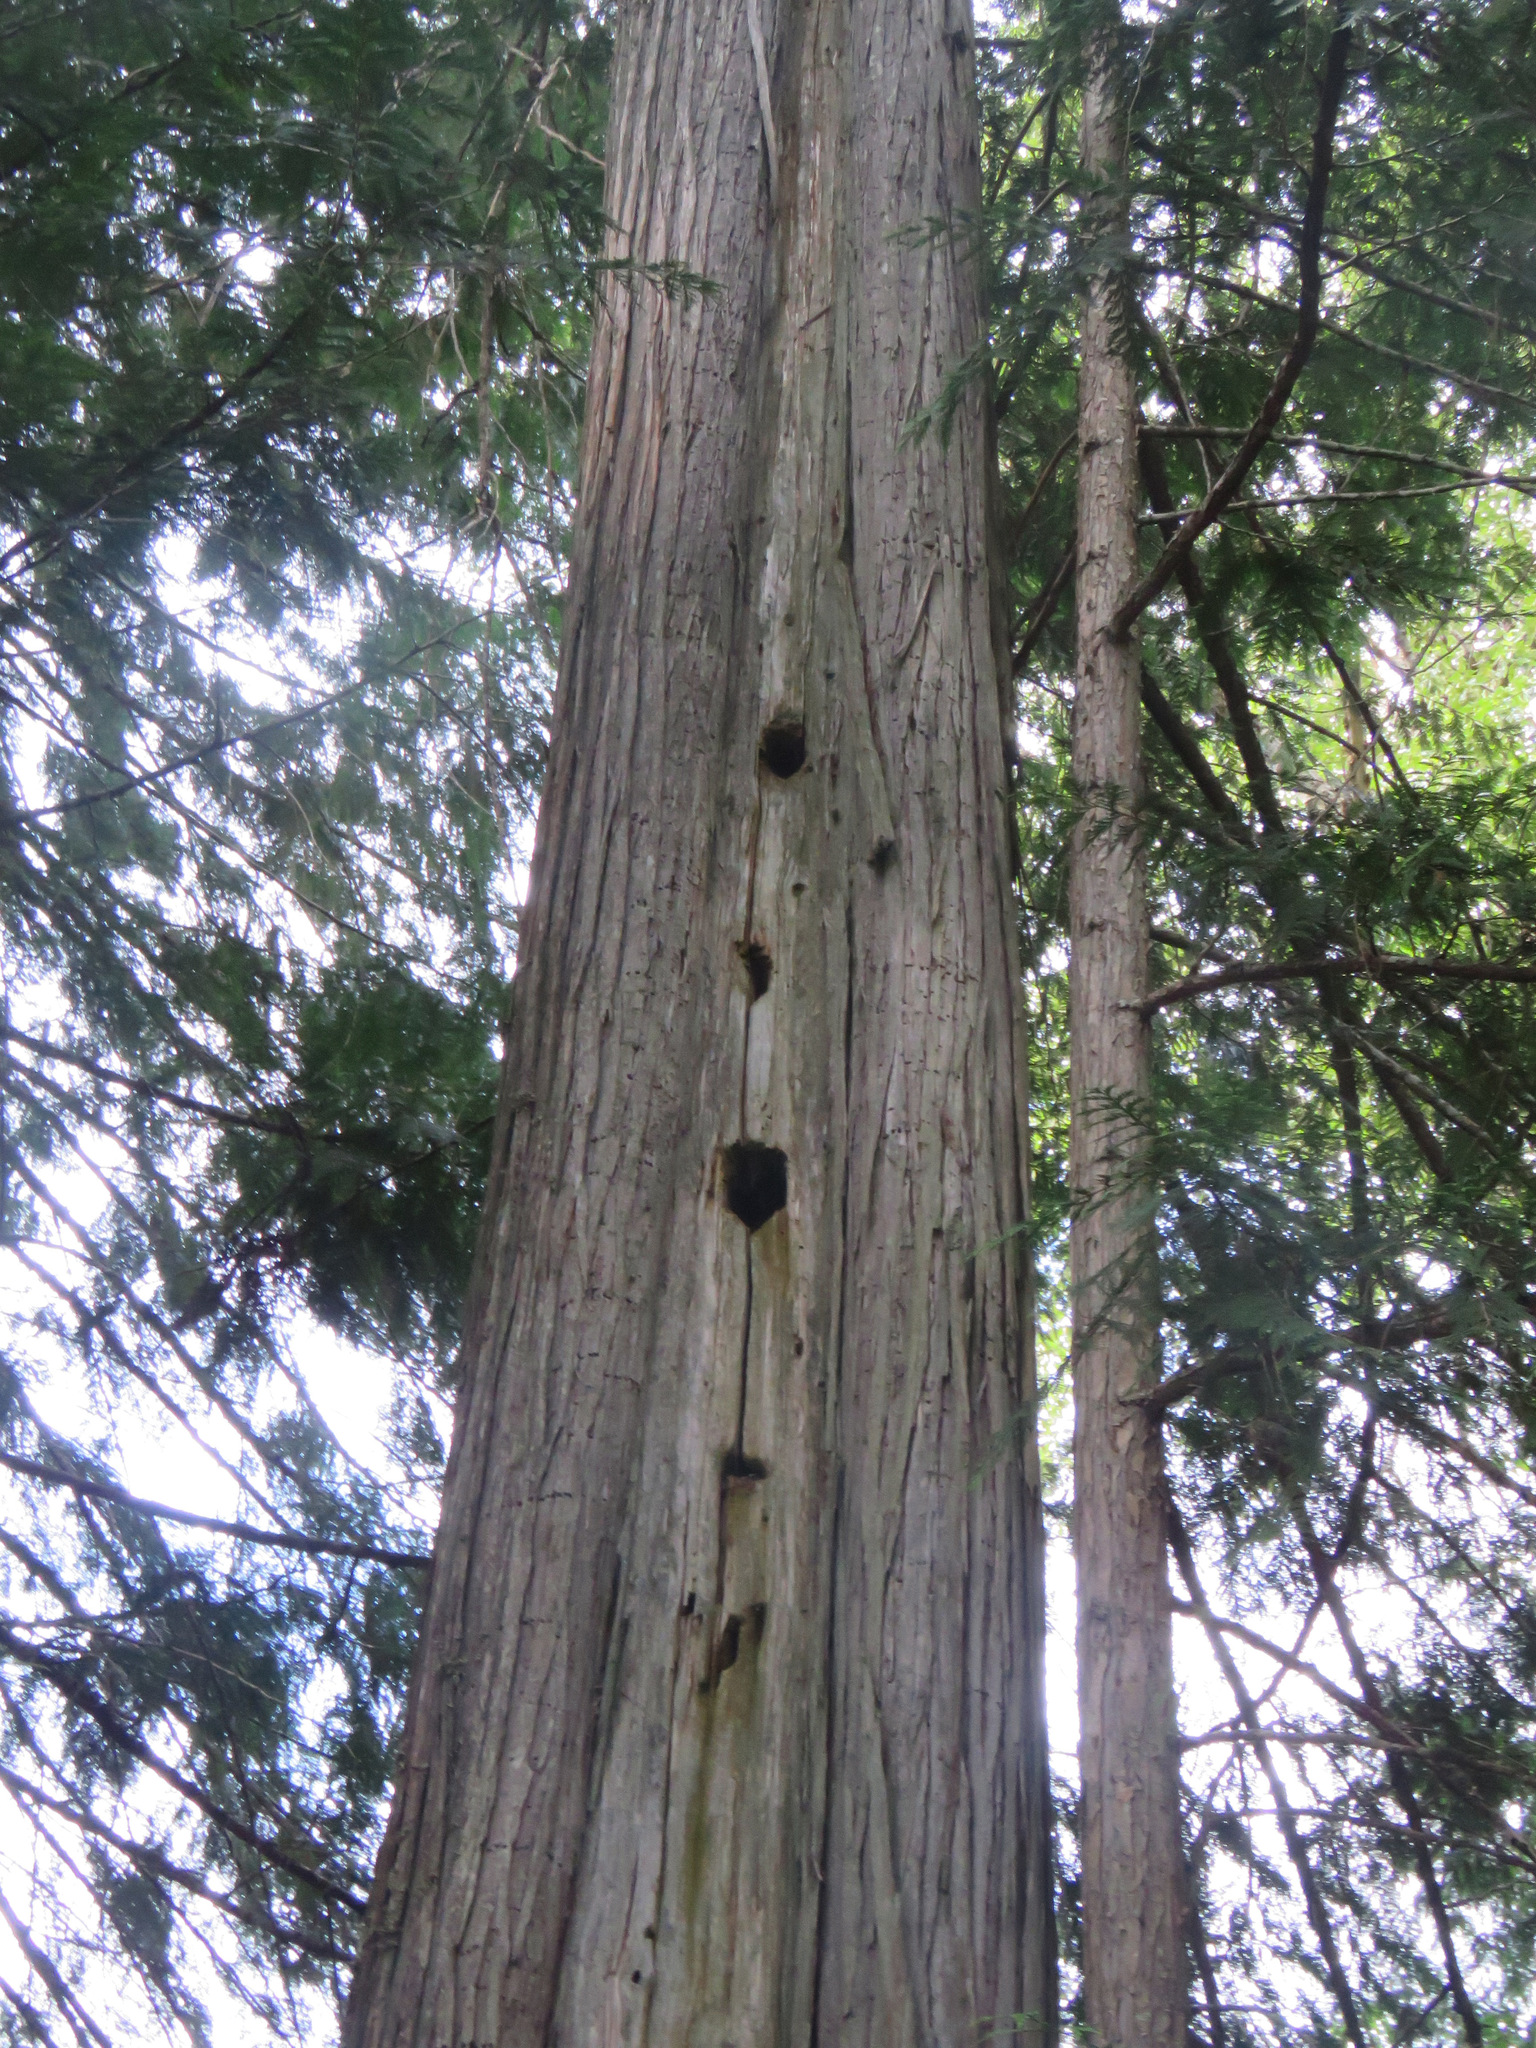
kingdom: Animalia
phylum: Chordata
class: Aves
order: Piciformes
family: Picidae
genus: Dryocopus
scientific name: Dryocopus pileatus
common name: Pileated woodpecker
